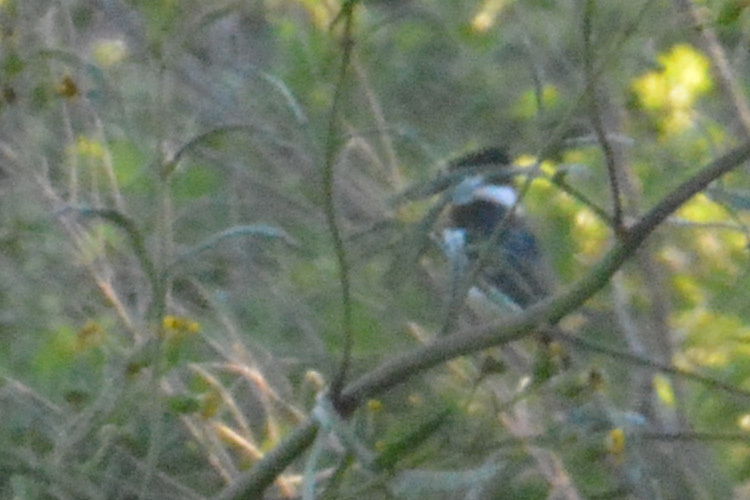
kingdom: Animalia
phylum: Chordata
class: Aves
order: Coraciiformes
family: Alcedinidae
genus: Chloroceryle
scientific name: Chloroceryle amazona
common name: Amazon kingfisher
